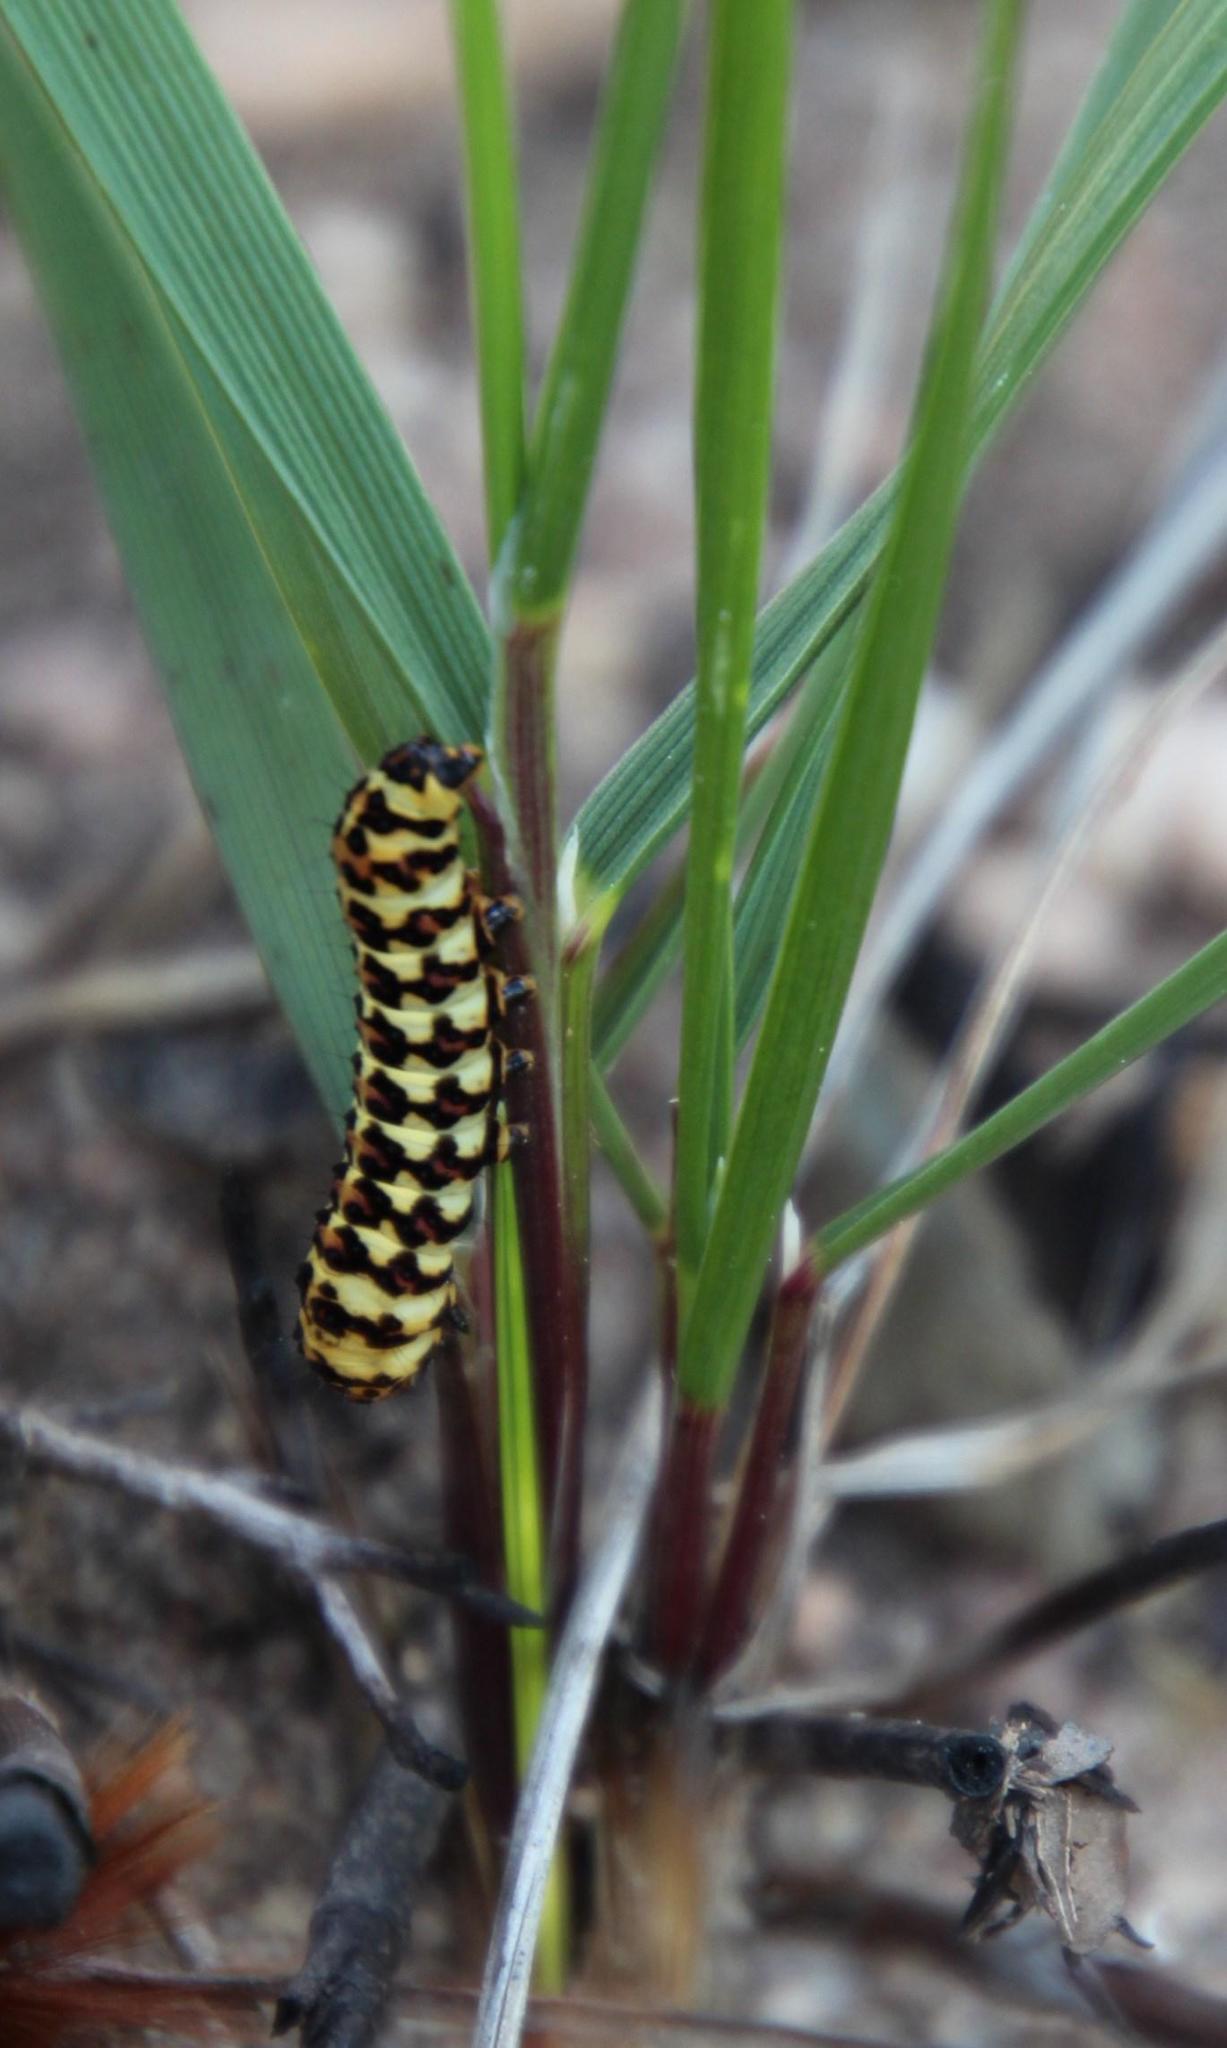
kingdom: Animalia
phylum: Arthropoda
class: Insecta
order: Lepidoptera
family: Noctuidae
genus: Diaphone
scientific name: Diaphone eumela
